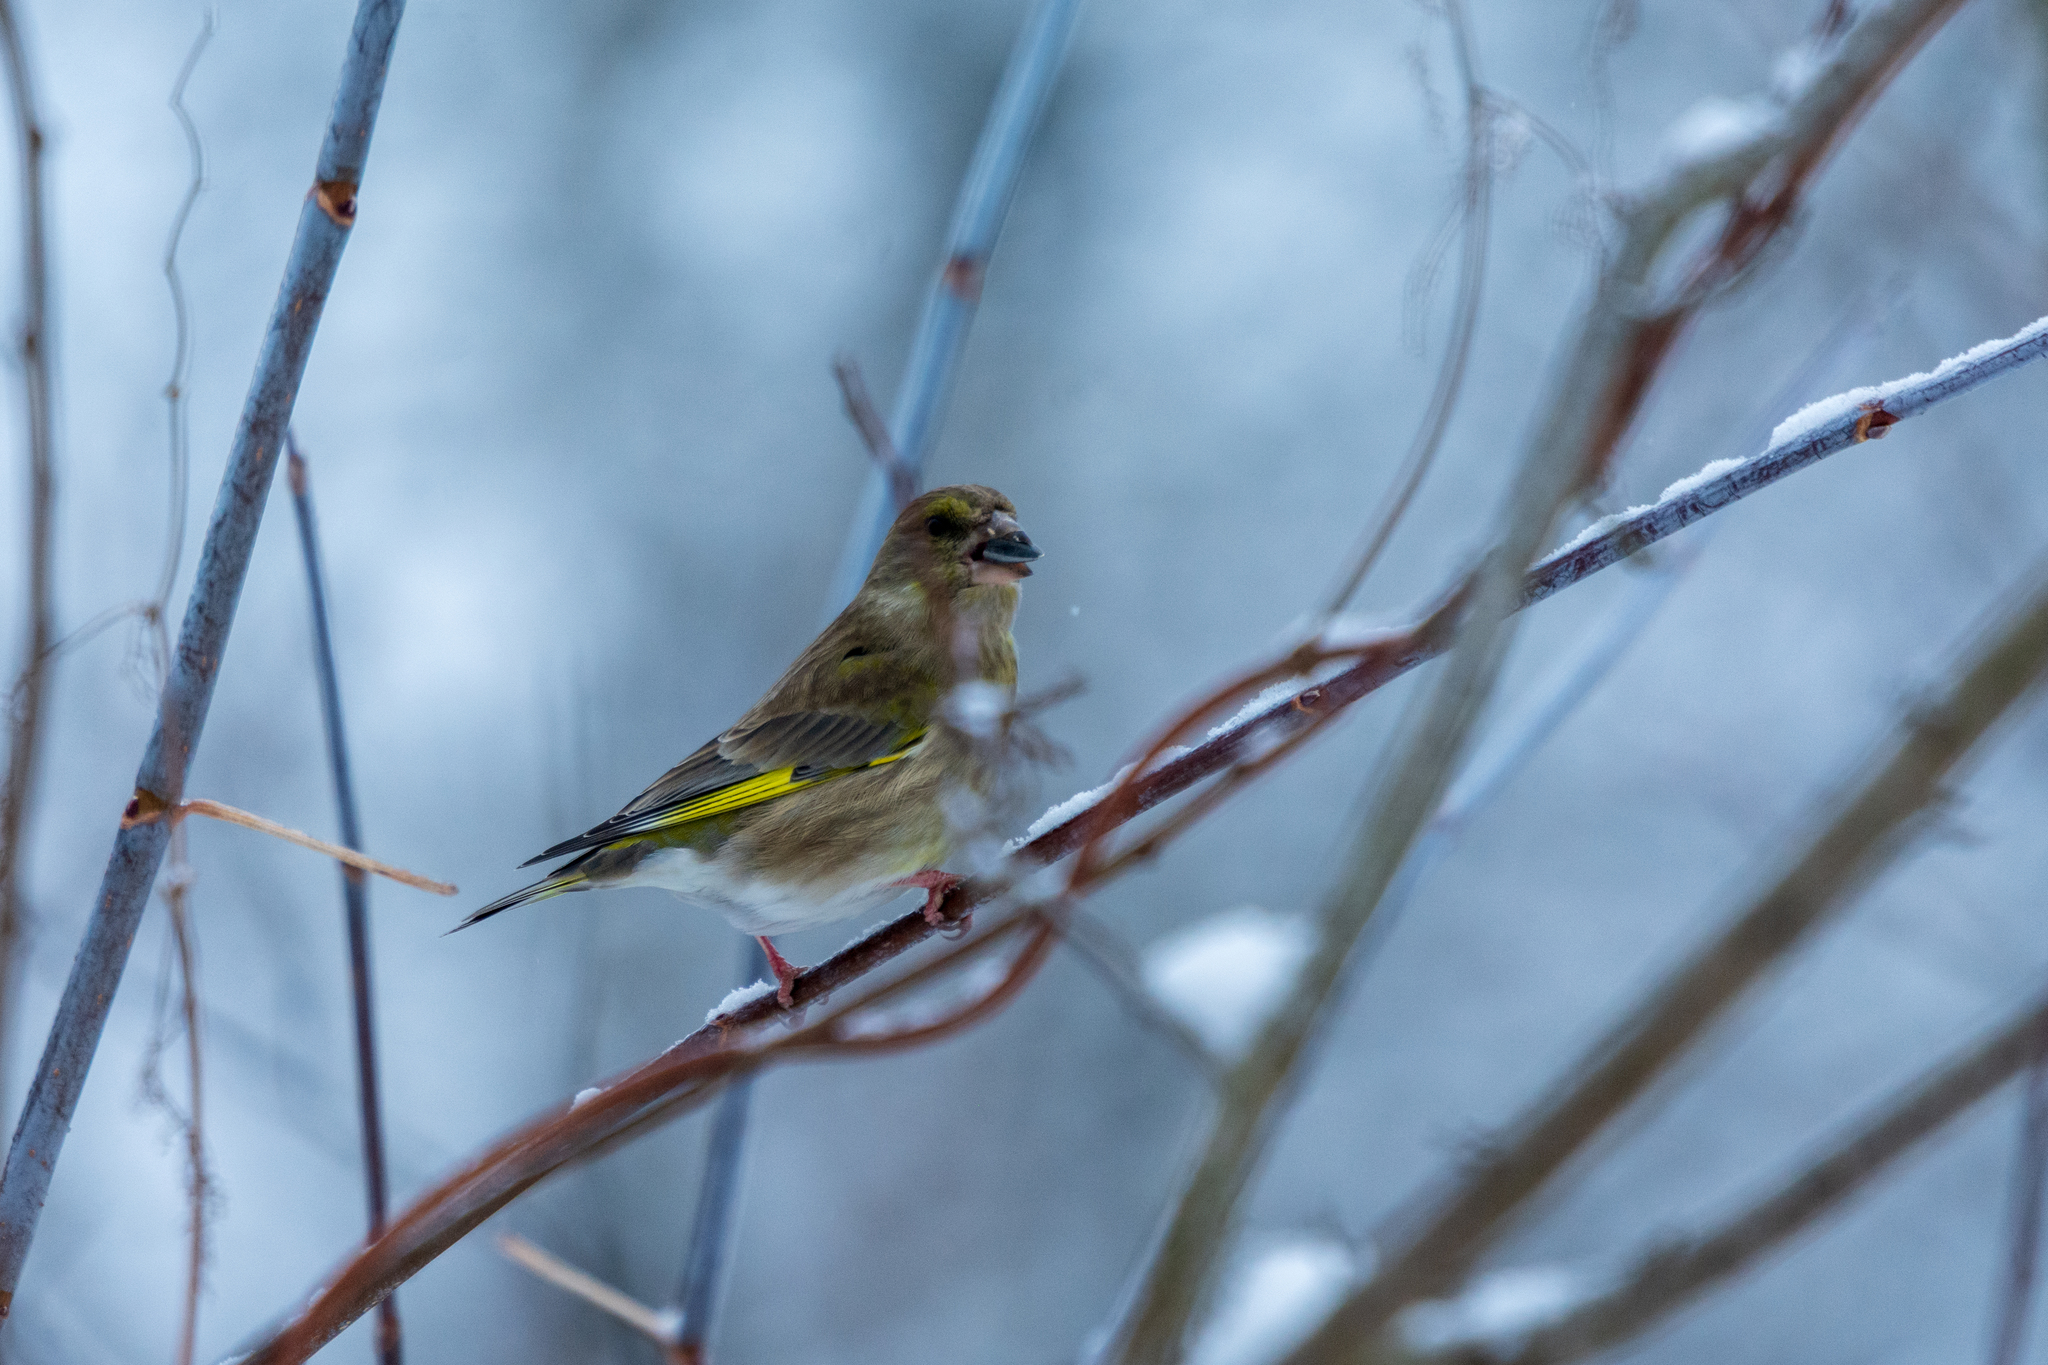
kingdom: Plantae
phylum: Tracheophyta
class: Liliopsida
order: Poales
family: Poaceae
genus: Chloris
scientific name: Chloris chloris
